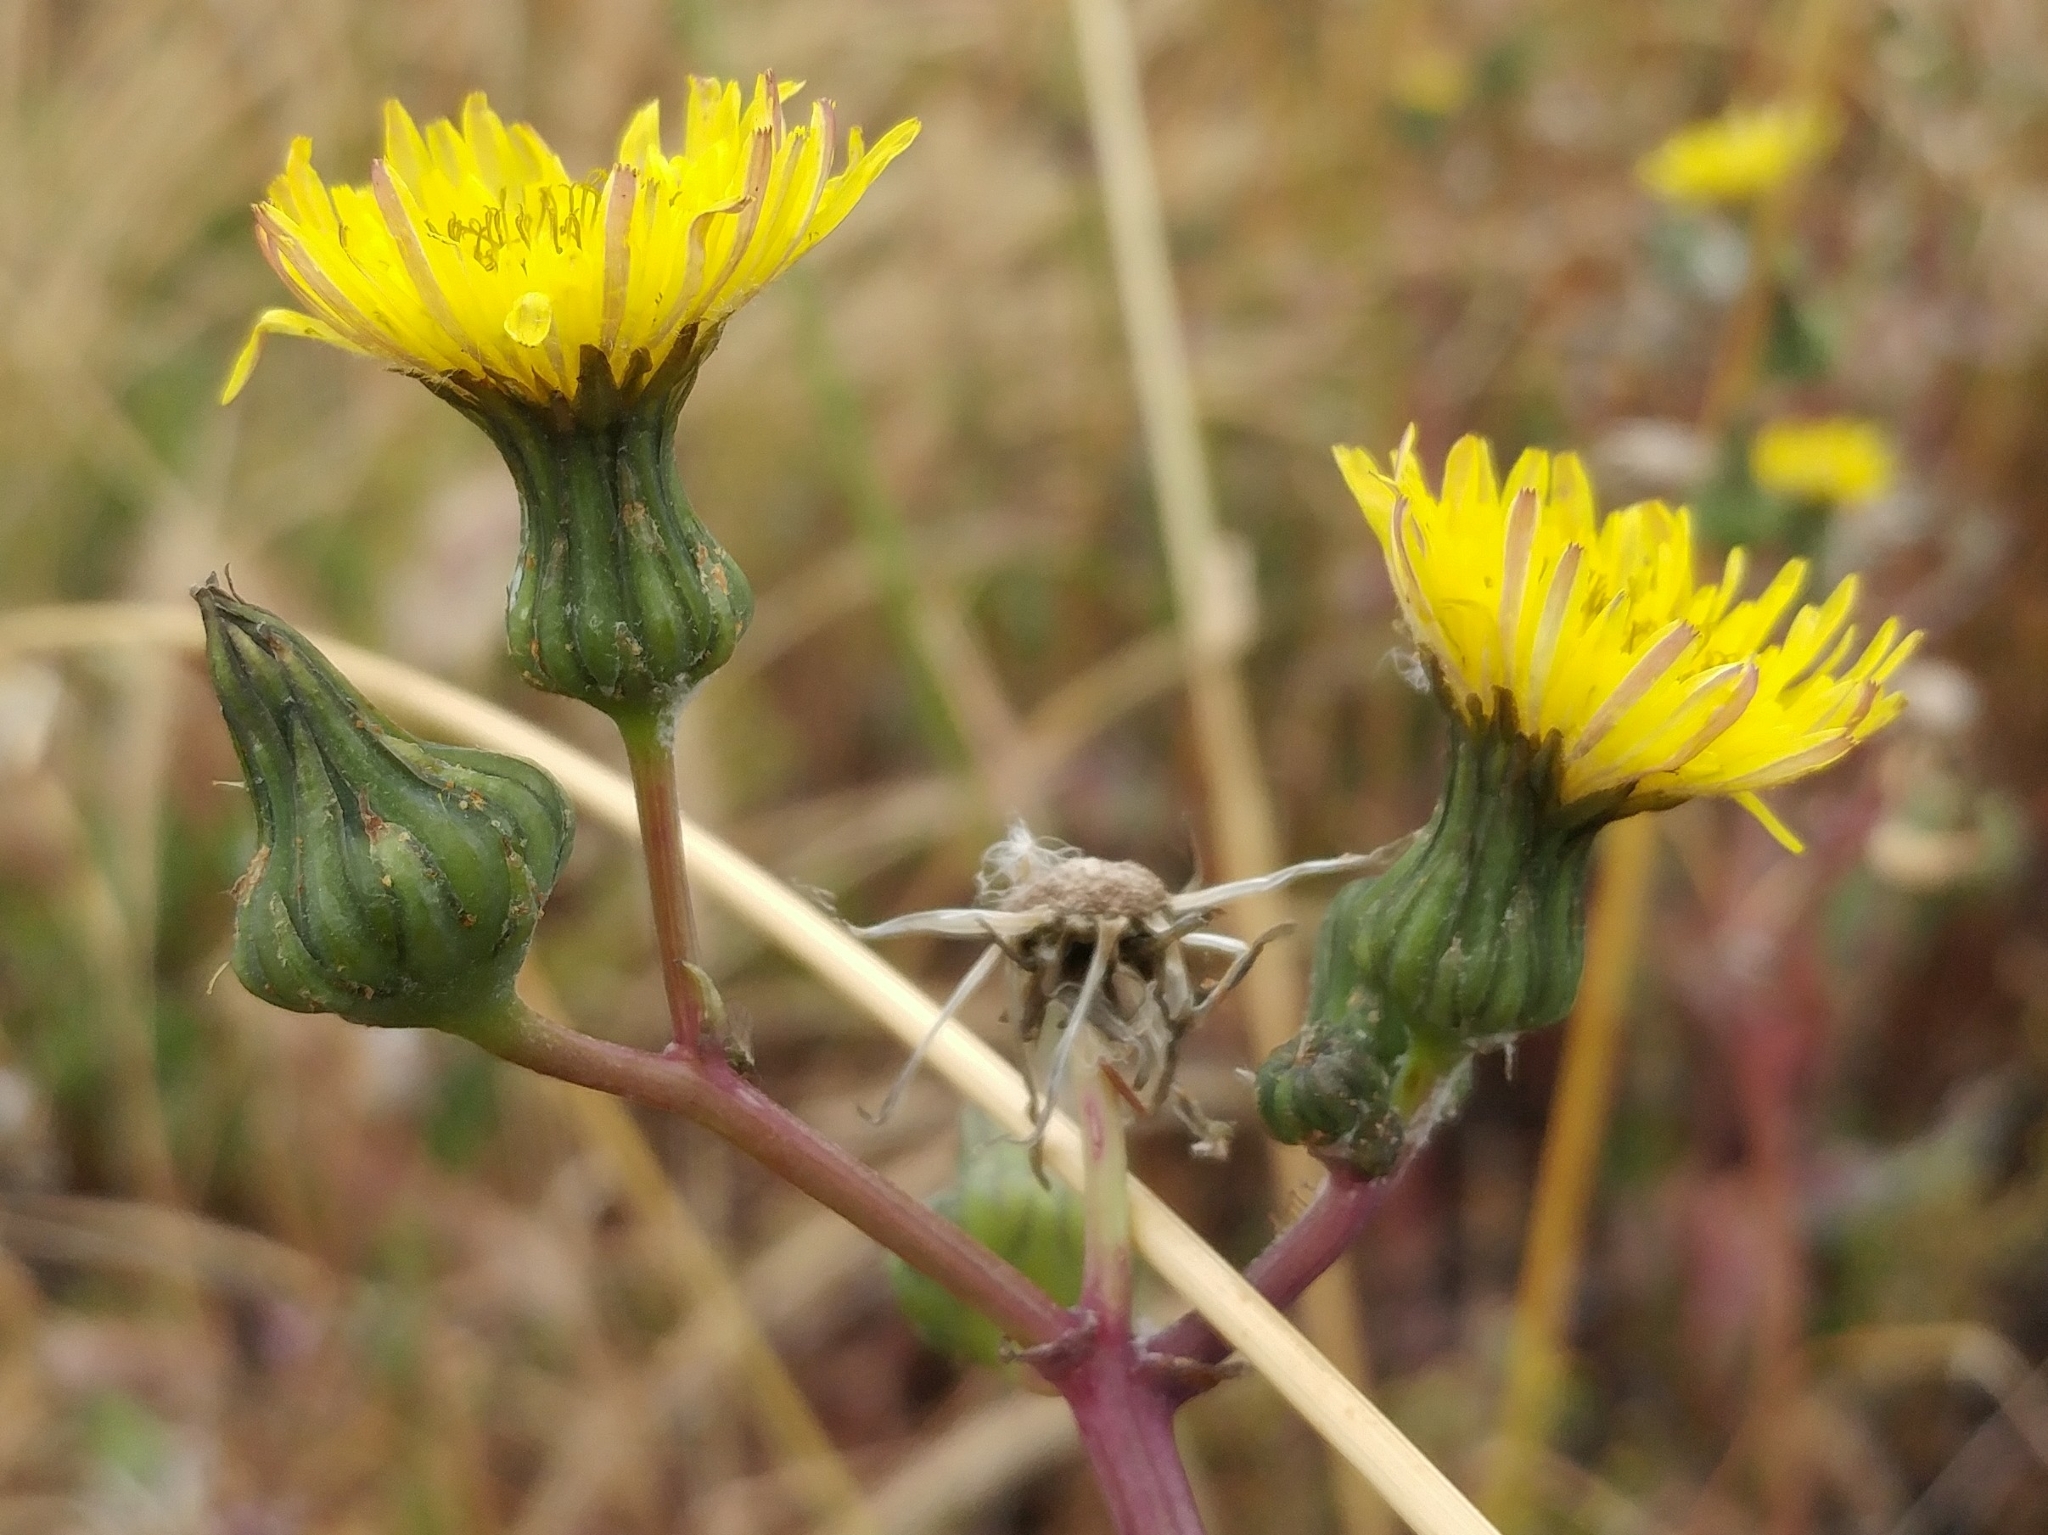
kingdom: Plantae
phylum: Tracheophyta
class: Magnoliopsida
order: Asterales
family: Asteraceae
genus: Sonchus
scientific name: Sonchus oleraceus
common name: Common sowthistle
